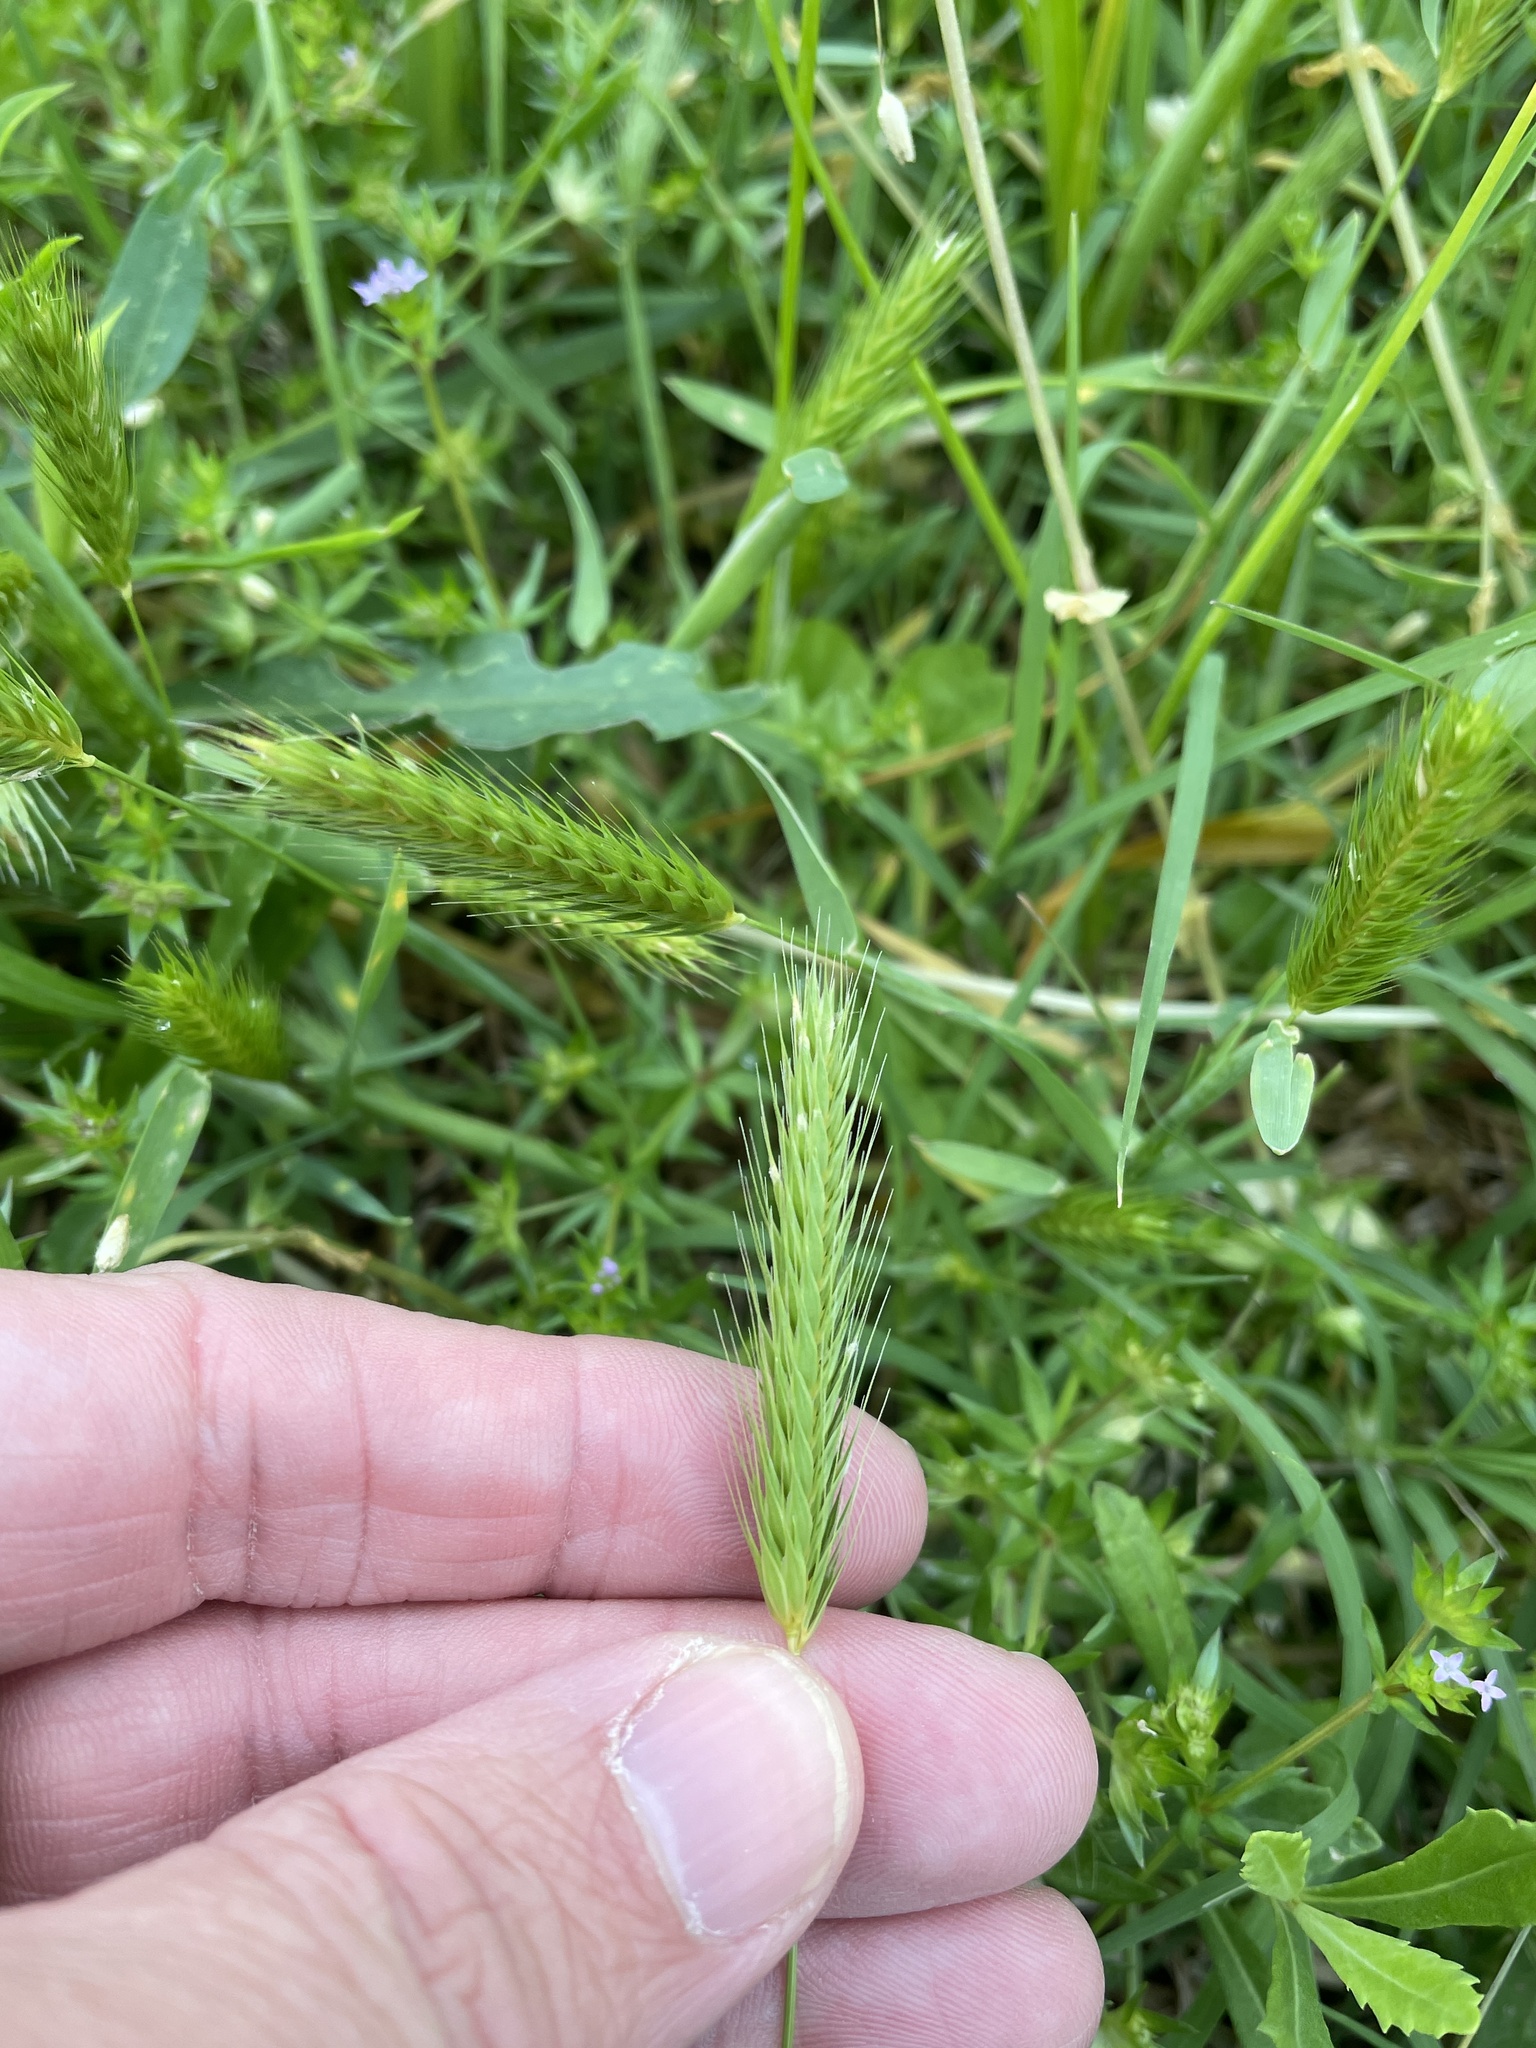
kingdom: Plantae
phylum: Tracheophyta
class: Liliopsida
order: Poales
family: Poaceae
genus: Hordeum
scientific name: Hordeum pusillum
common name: Little barley
